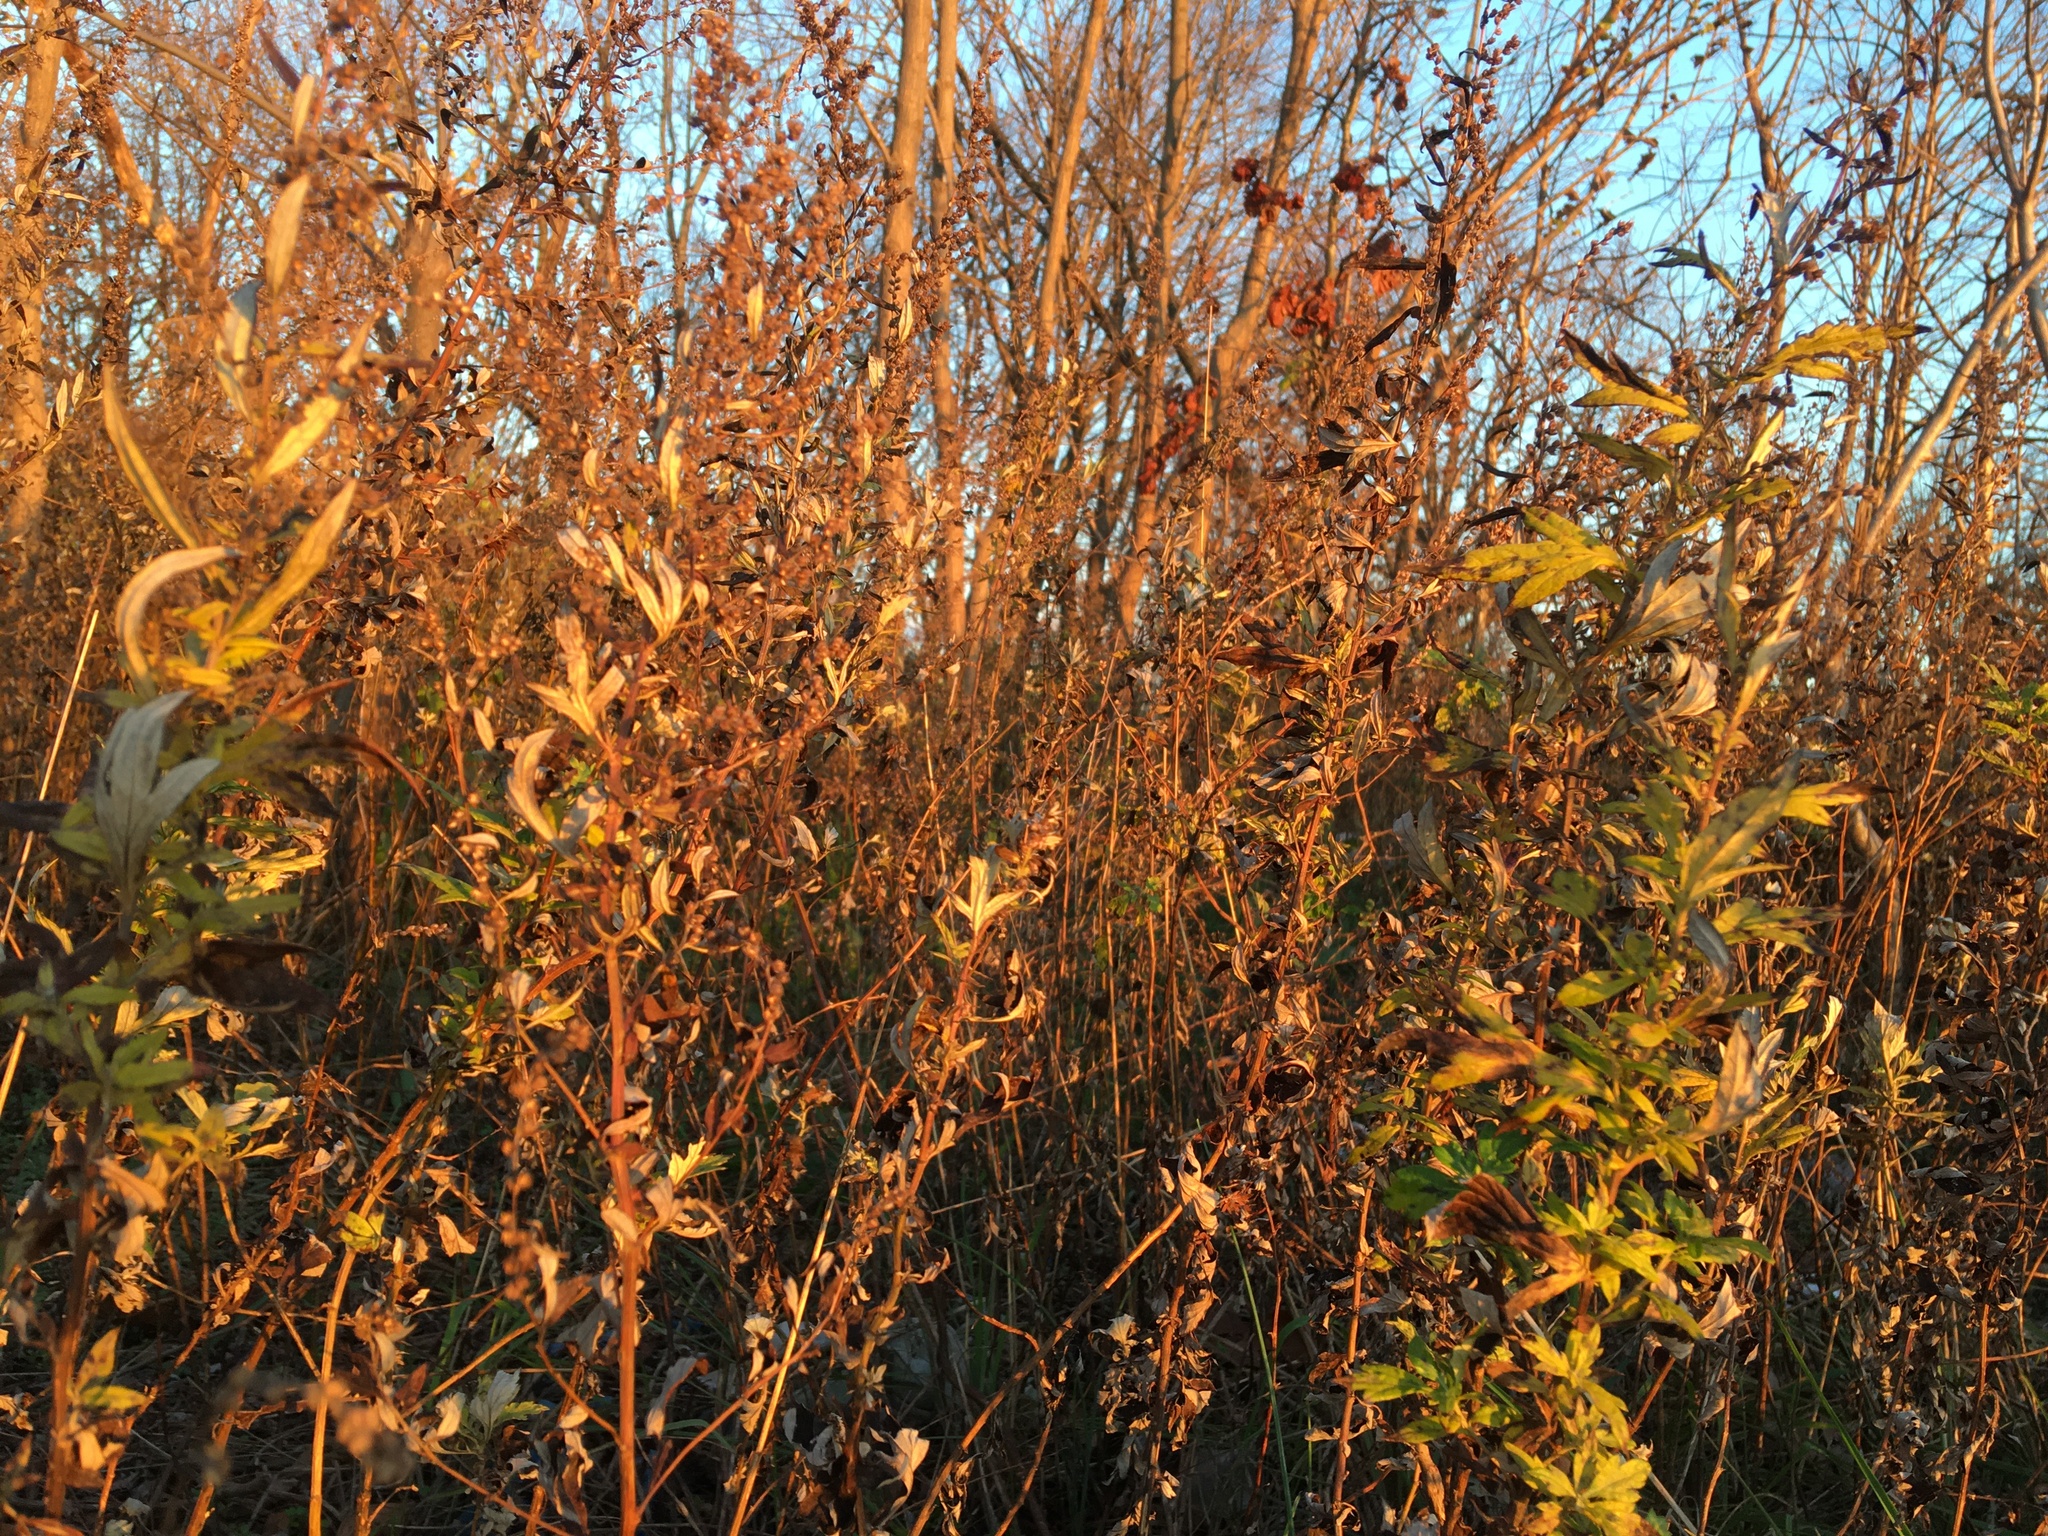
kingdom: Plantae
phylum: Tracheophyta
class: Magnoliopsida
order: Asterales
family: Asteraceae
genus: Artemisia
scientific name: Artemisia vulgaris
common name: Mugwort
